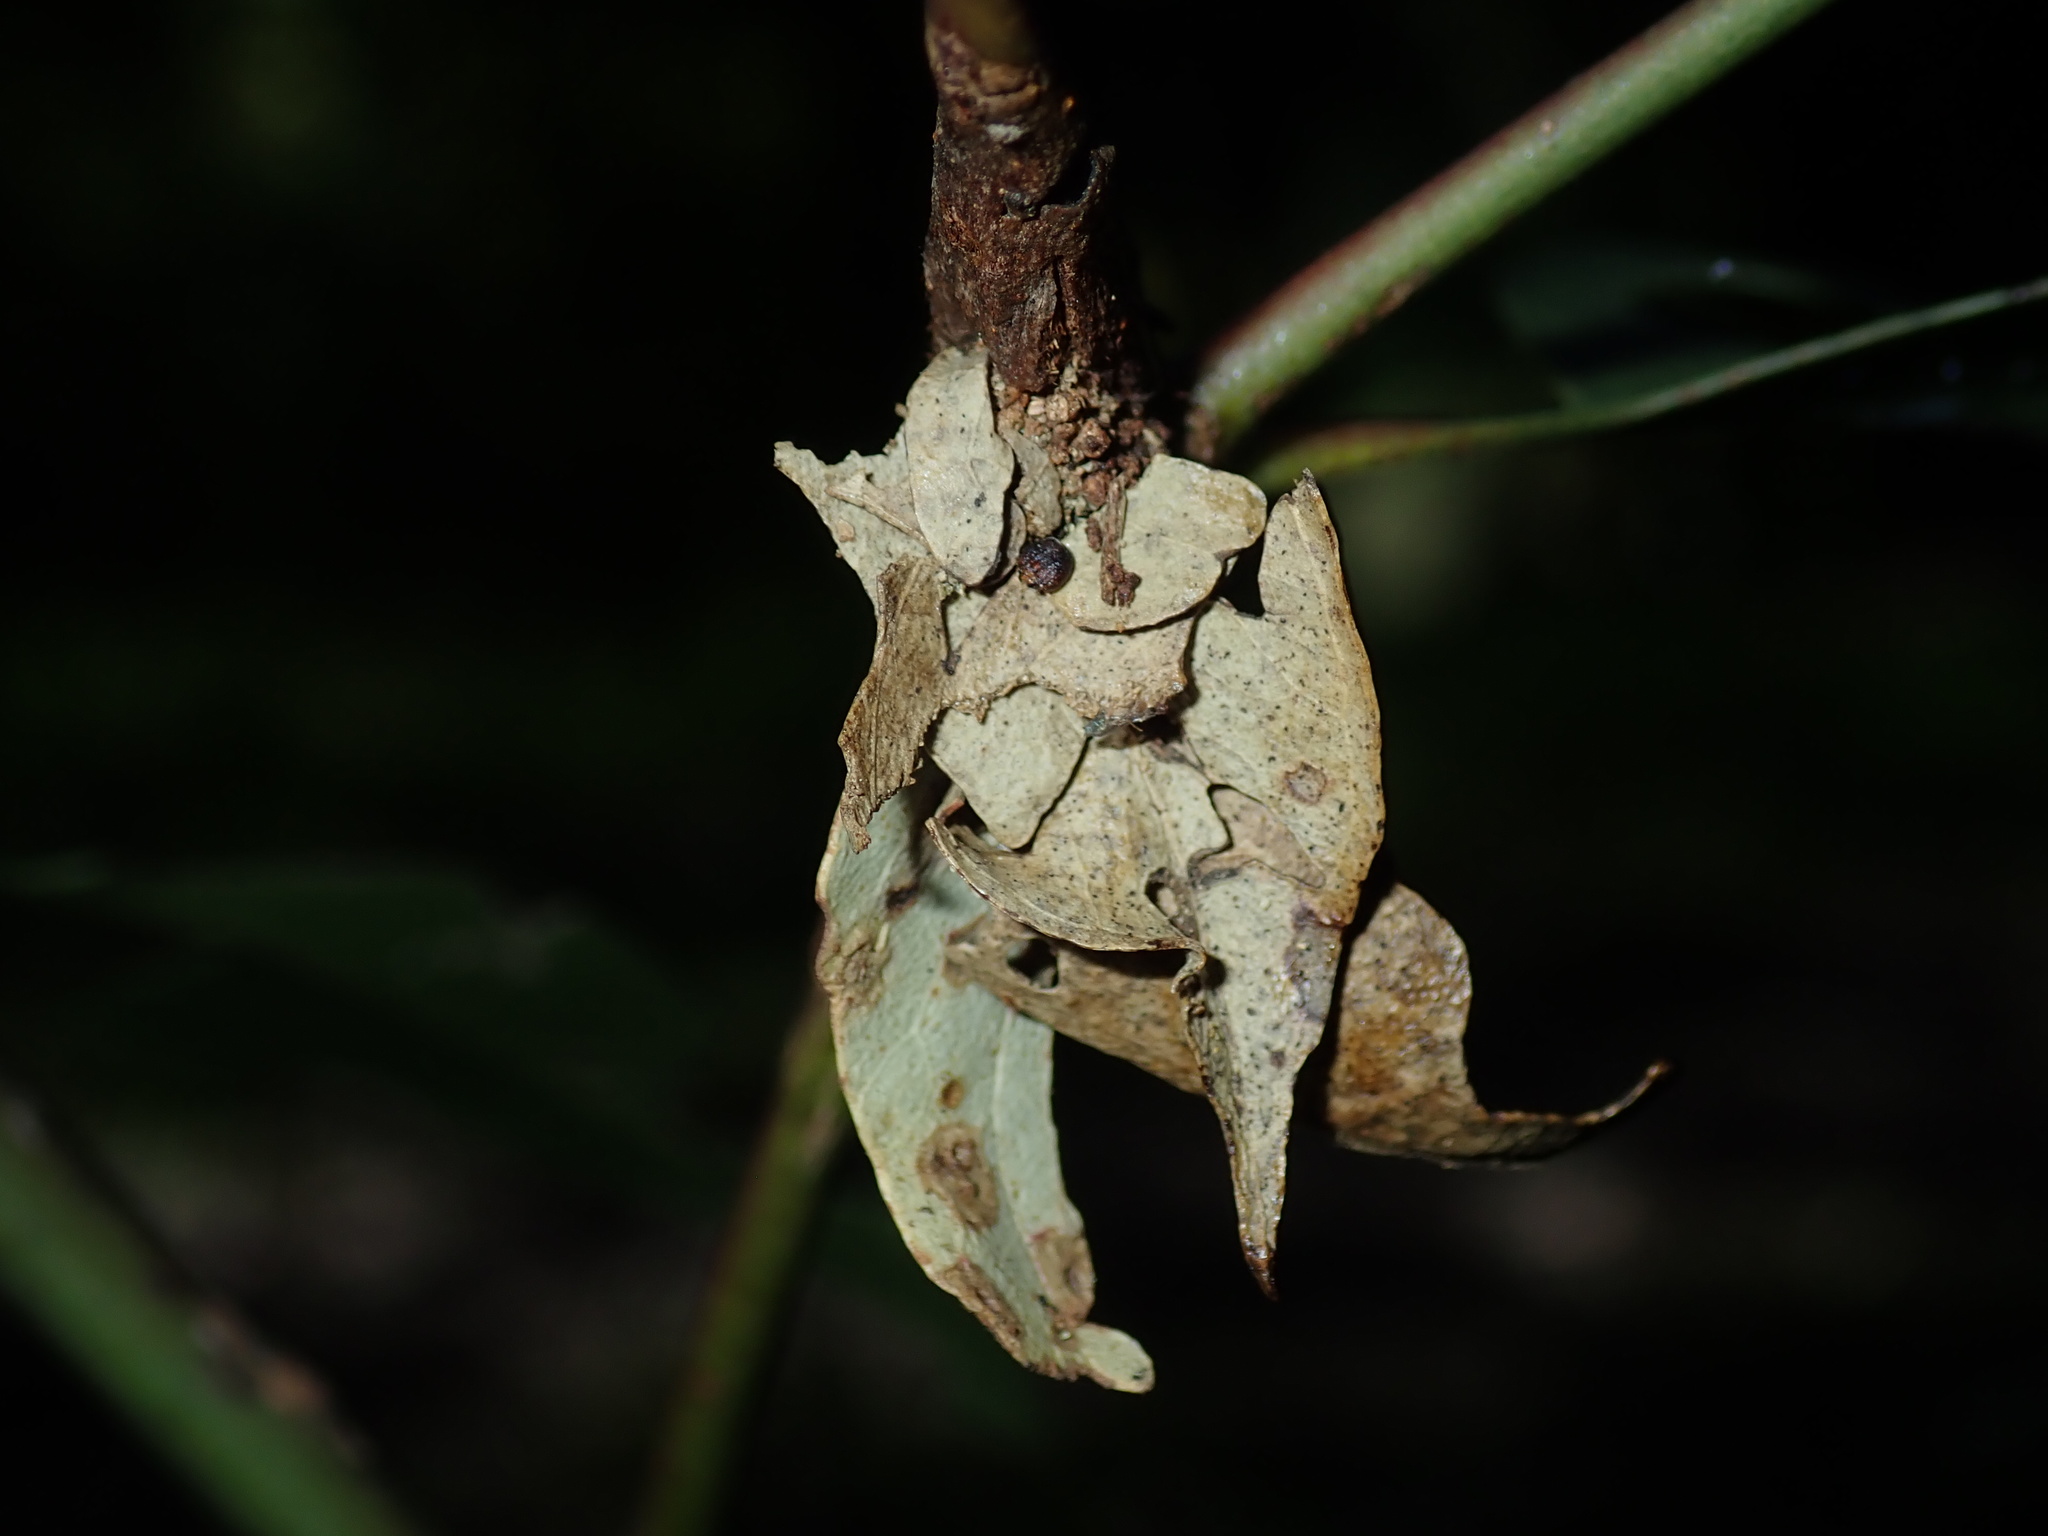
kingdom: Animalia
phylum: Arthropoda
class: Insecta
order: Lepidoptera
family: Psychidae
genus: Hyalarcta
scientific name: Hyalarcta huebneri
